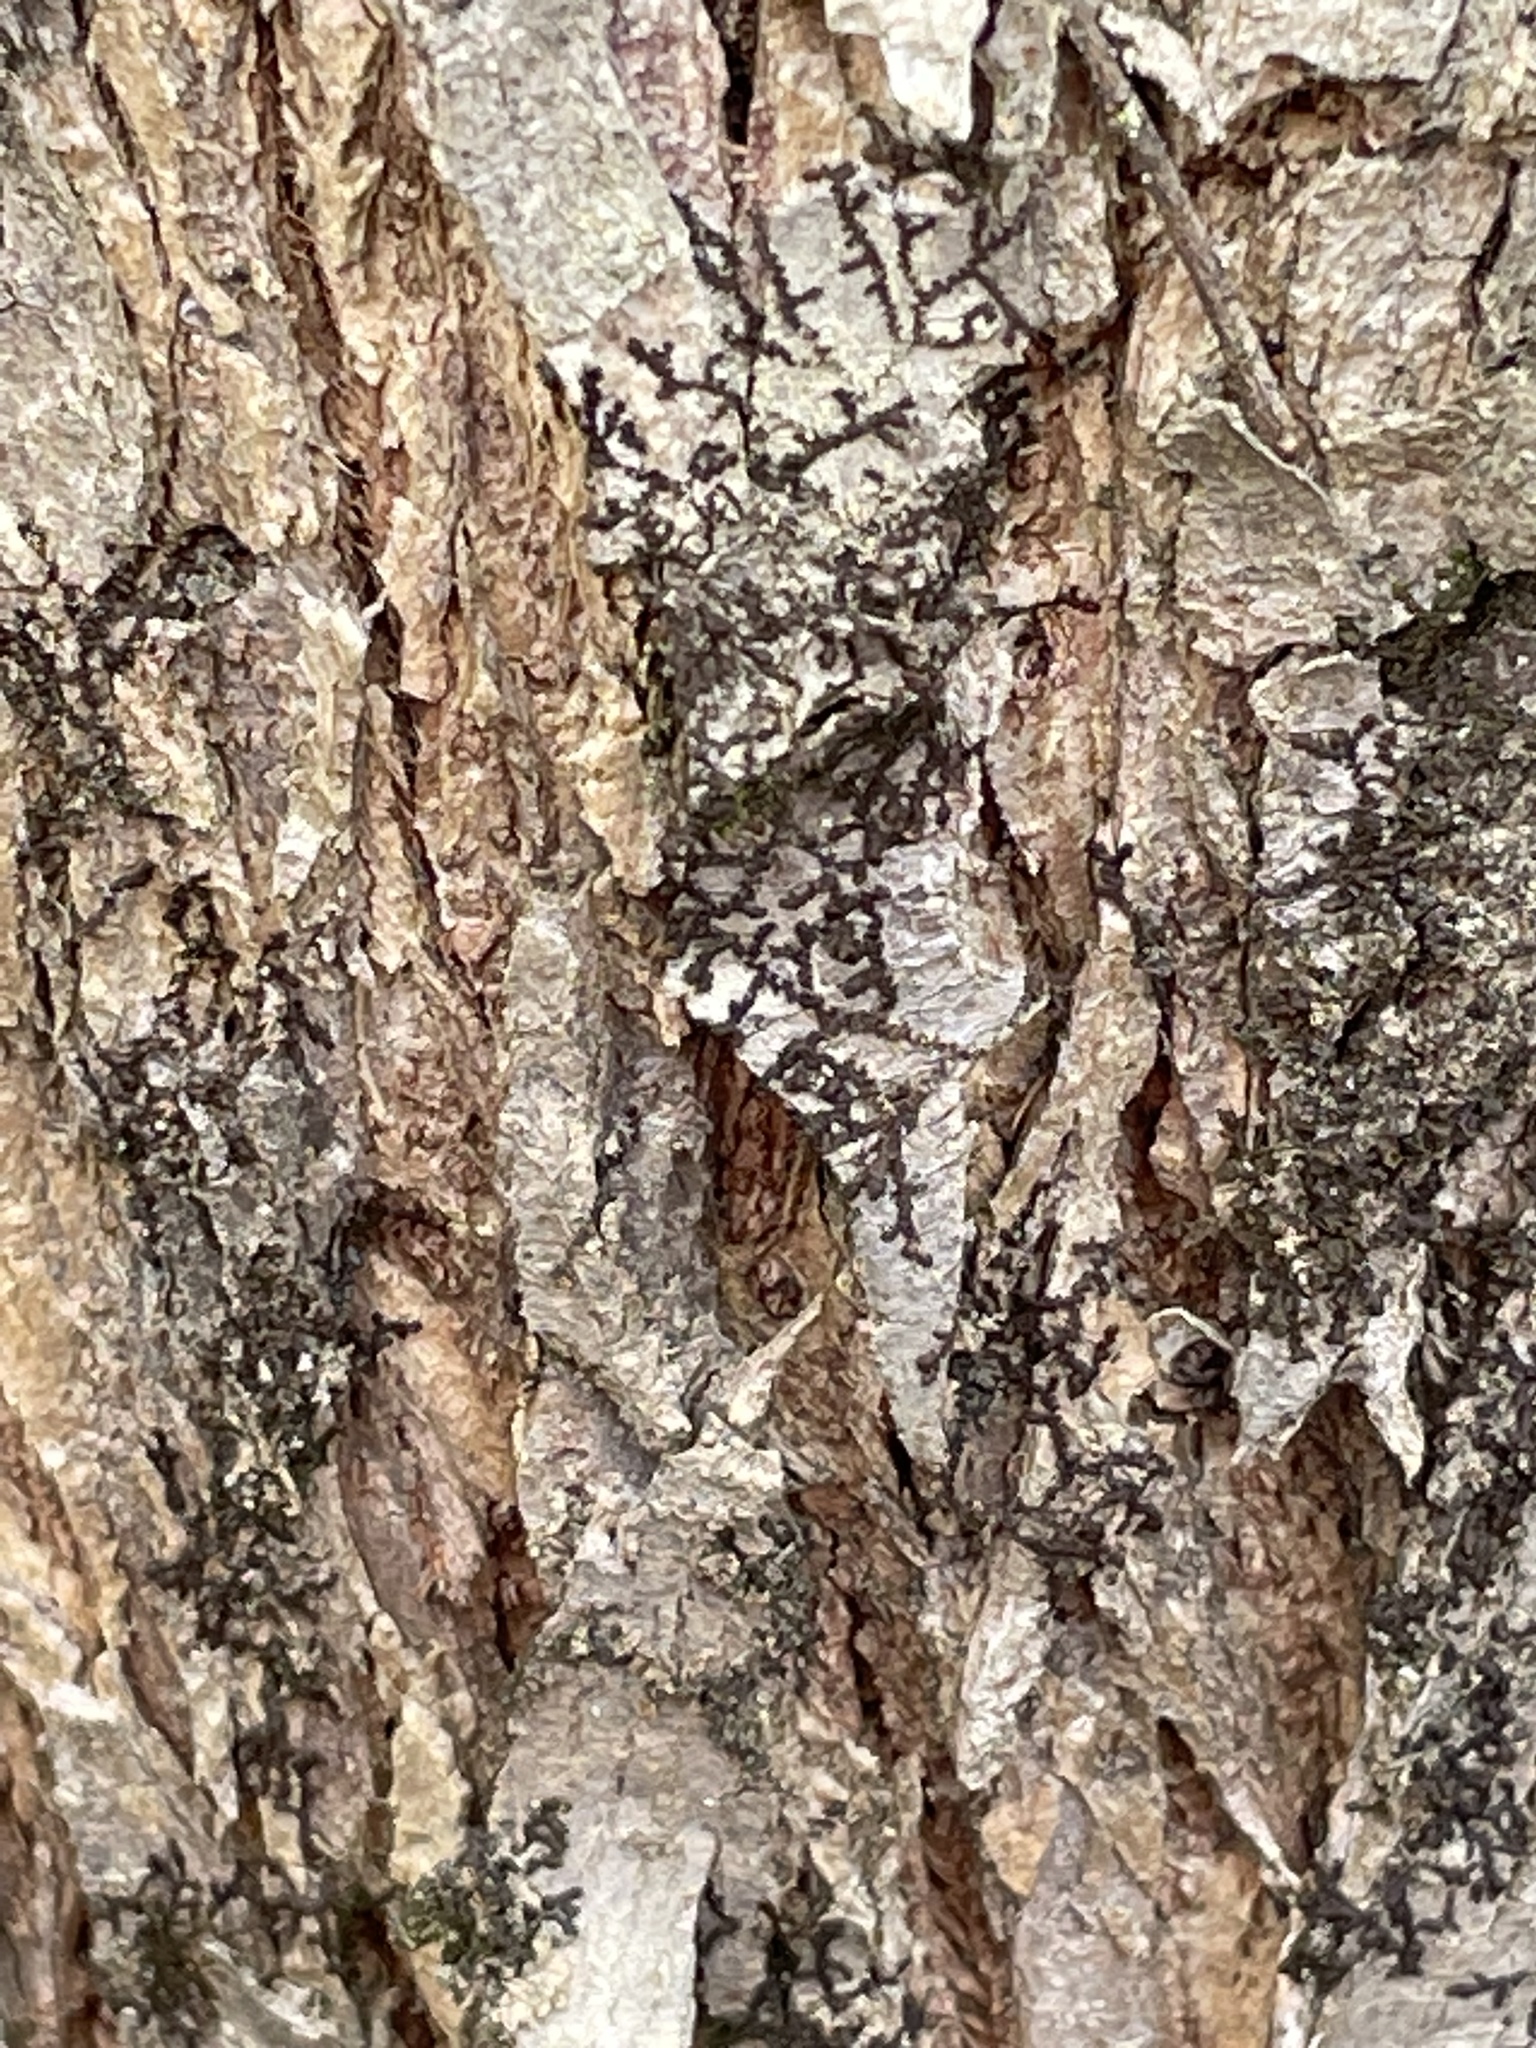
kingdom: Plantae
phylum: Marchantiophyta
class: Jungermanniopsida
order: Porellales
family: Frullaniaceae
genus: Frullania
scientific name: Frullania eboracensis
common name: New york scalewort
